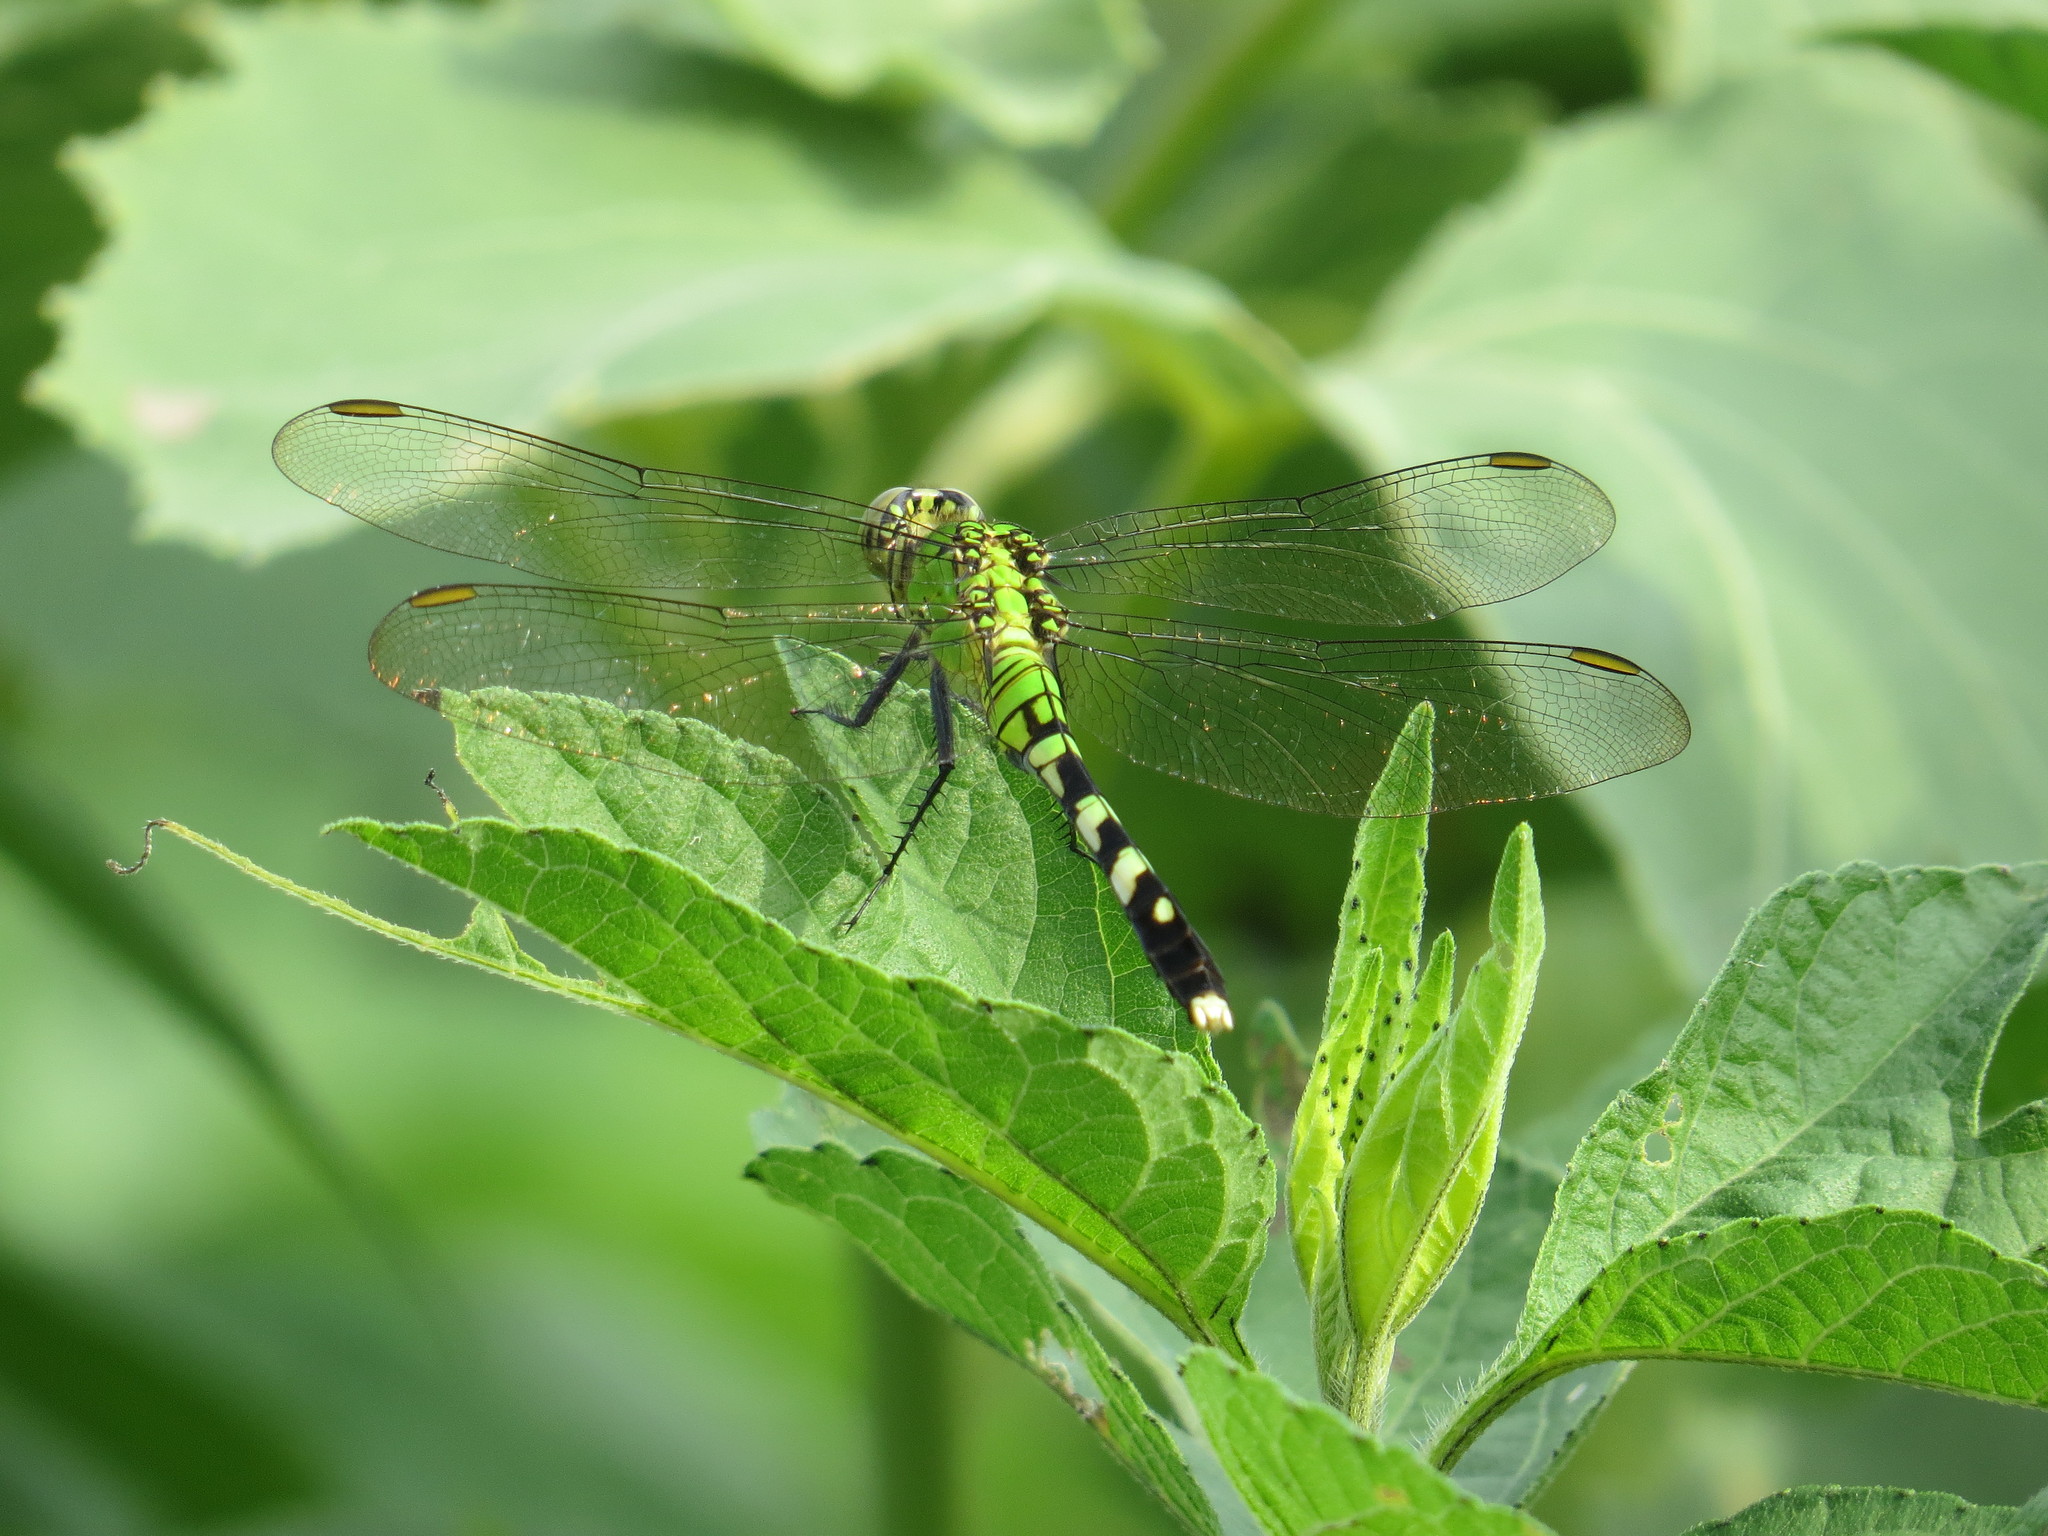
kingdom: Animalia
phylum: Arthropoda
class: Insecta
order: Odonata
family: Libellulidae
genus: Erythemis
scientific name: Erythemis simplicicollis
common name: Eastern pondhawk
